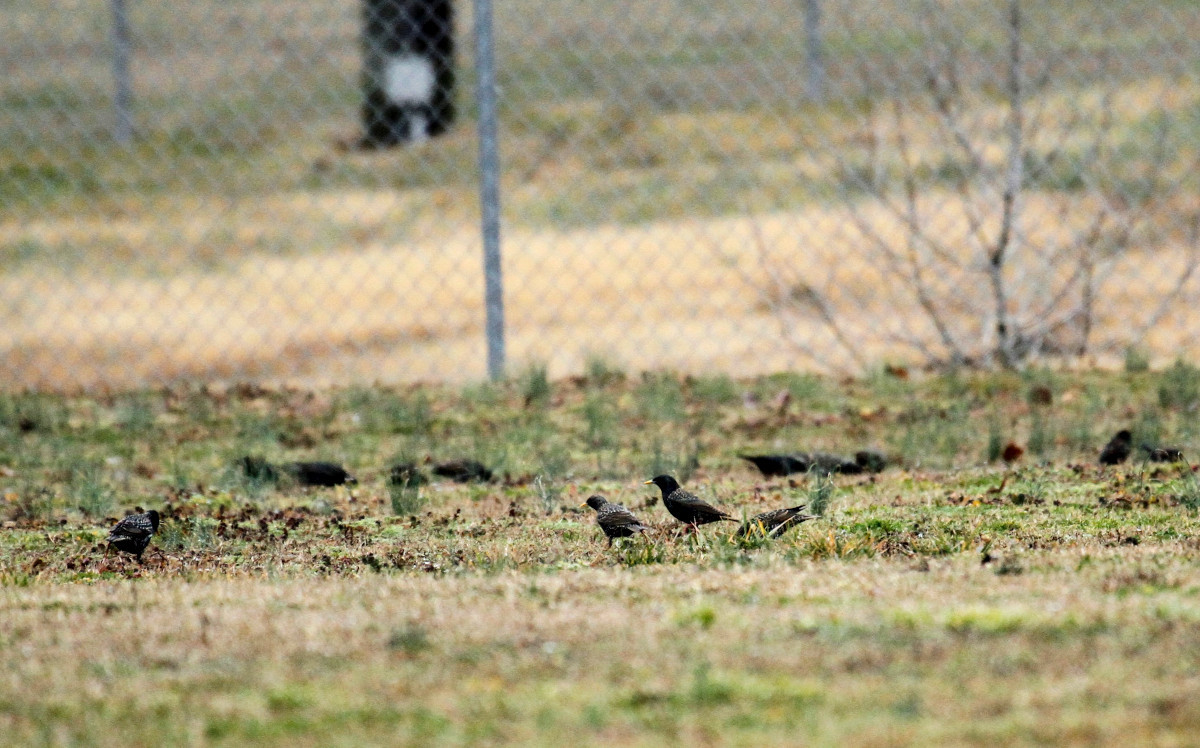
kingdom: Animalia
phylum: Chordata
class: Aves
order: Passeriformes
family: Sturnidae
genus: Sturnus
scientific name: Sturnus vulgaris
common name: Common starling
